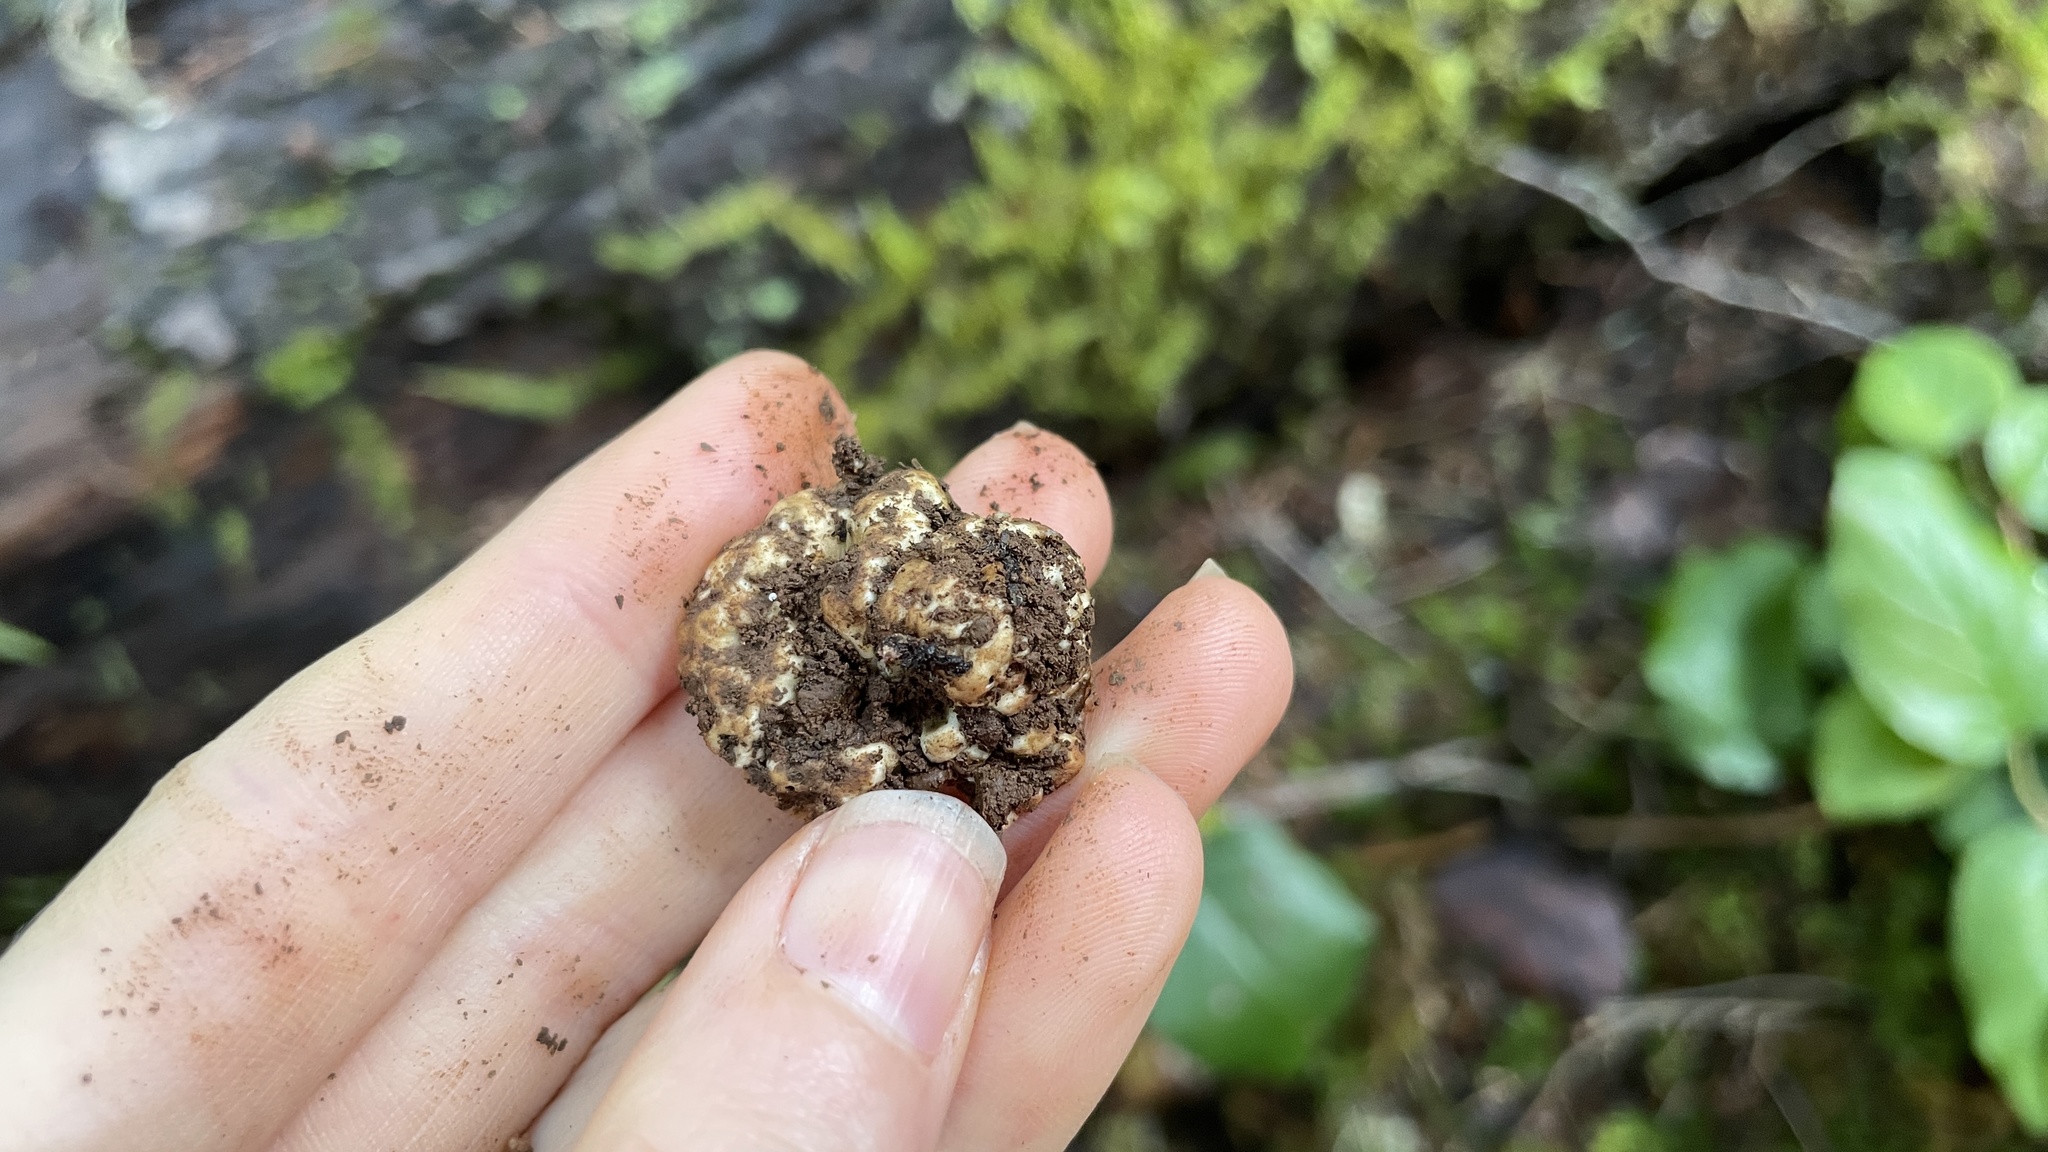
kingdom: Fungi
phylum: Ascomycota
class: Pezizomycetes
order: Pezizales
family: Tuberaceae
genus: Tuber
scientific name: Tuber oregonense
